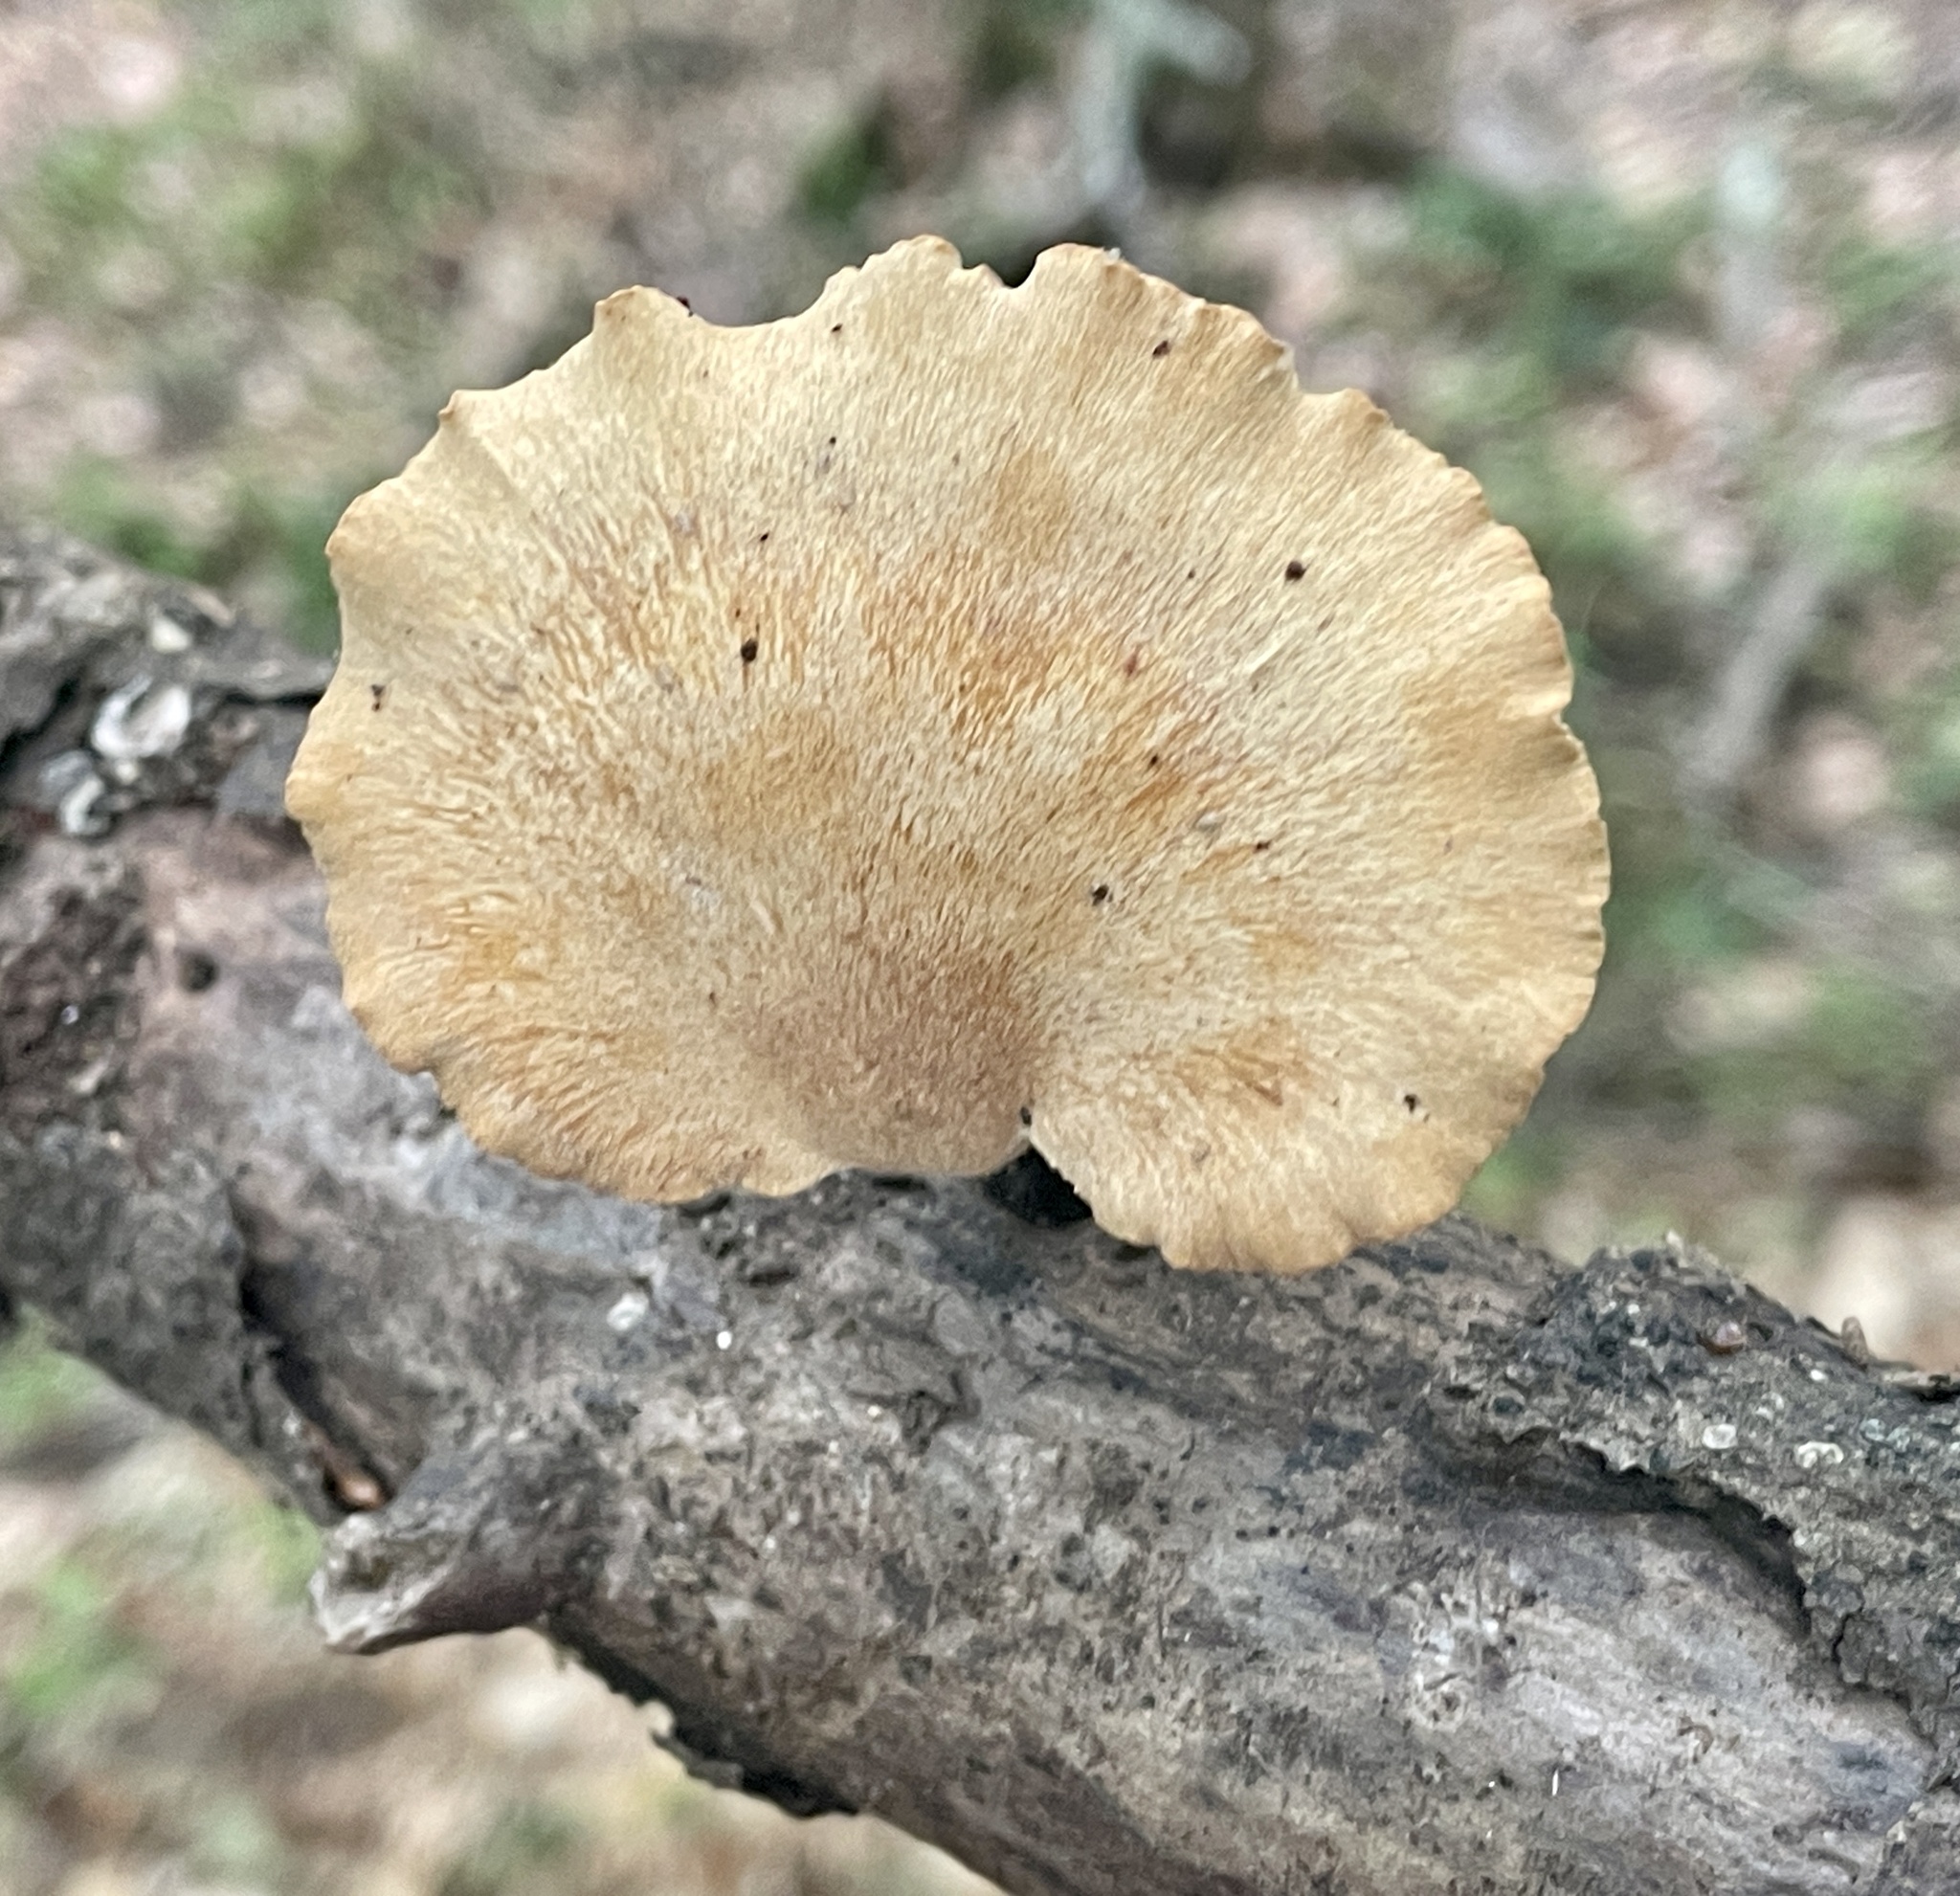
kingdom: Fungi
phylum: Basidiomycota
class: Agaricomycetes
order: Polyporales
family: Polyporaceae
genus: Cerioporus
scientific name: Cerioporus leptocephalus
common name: Blackfoot polypore
